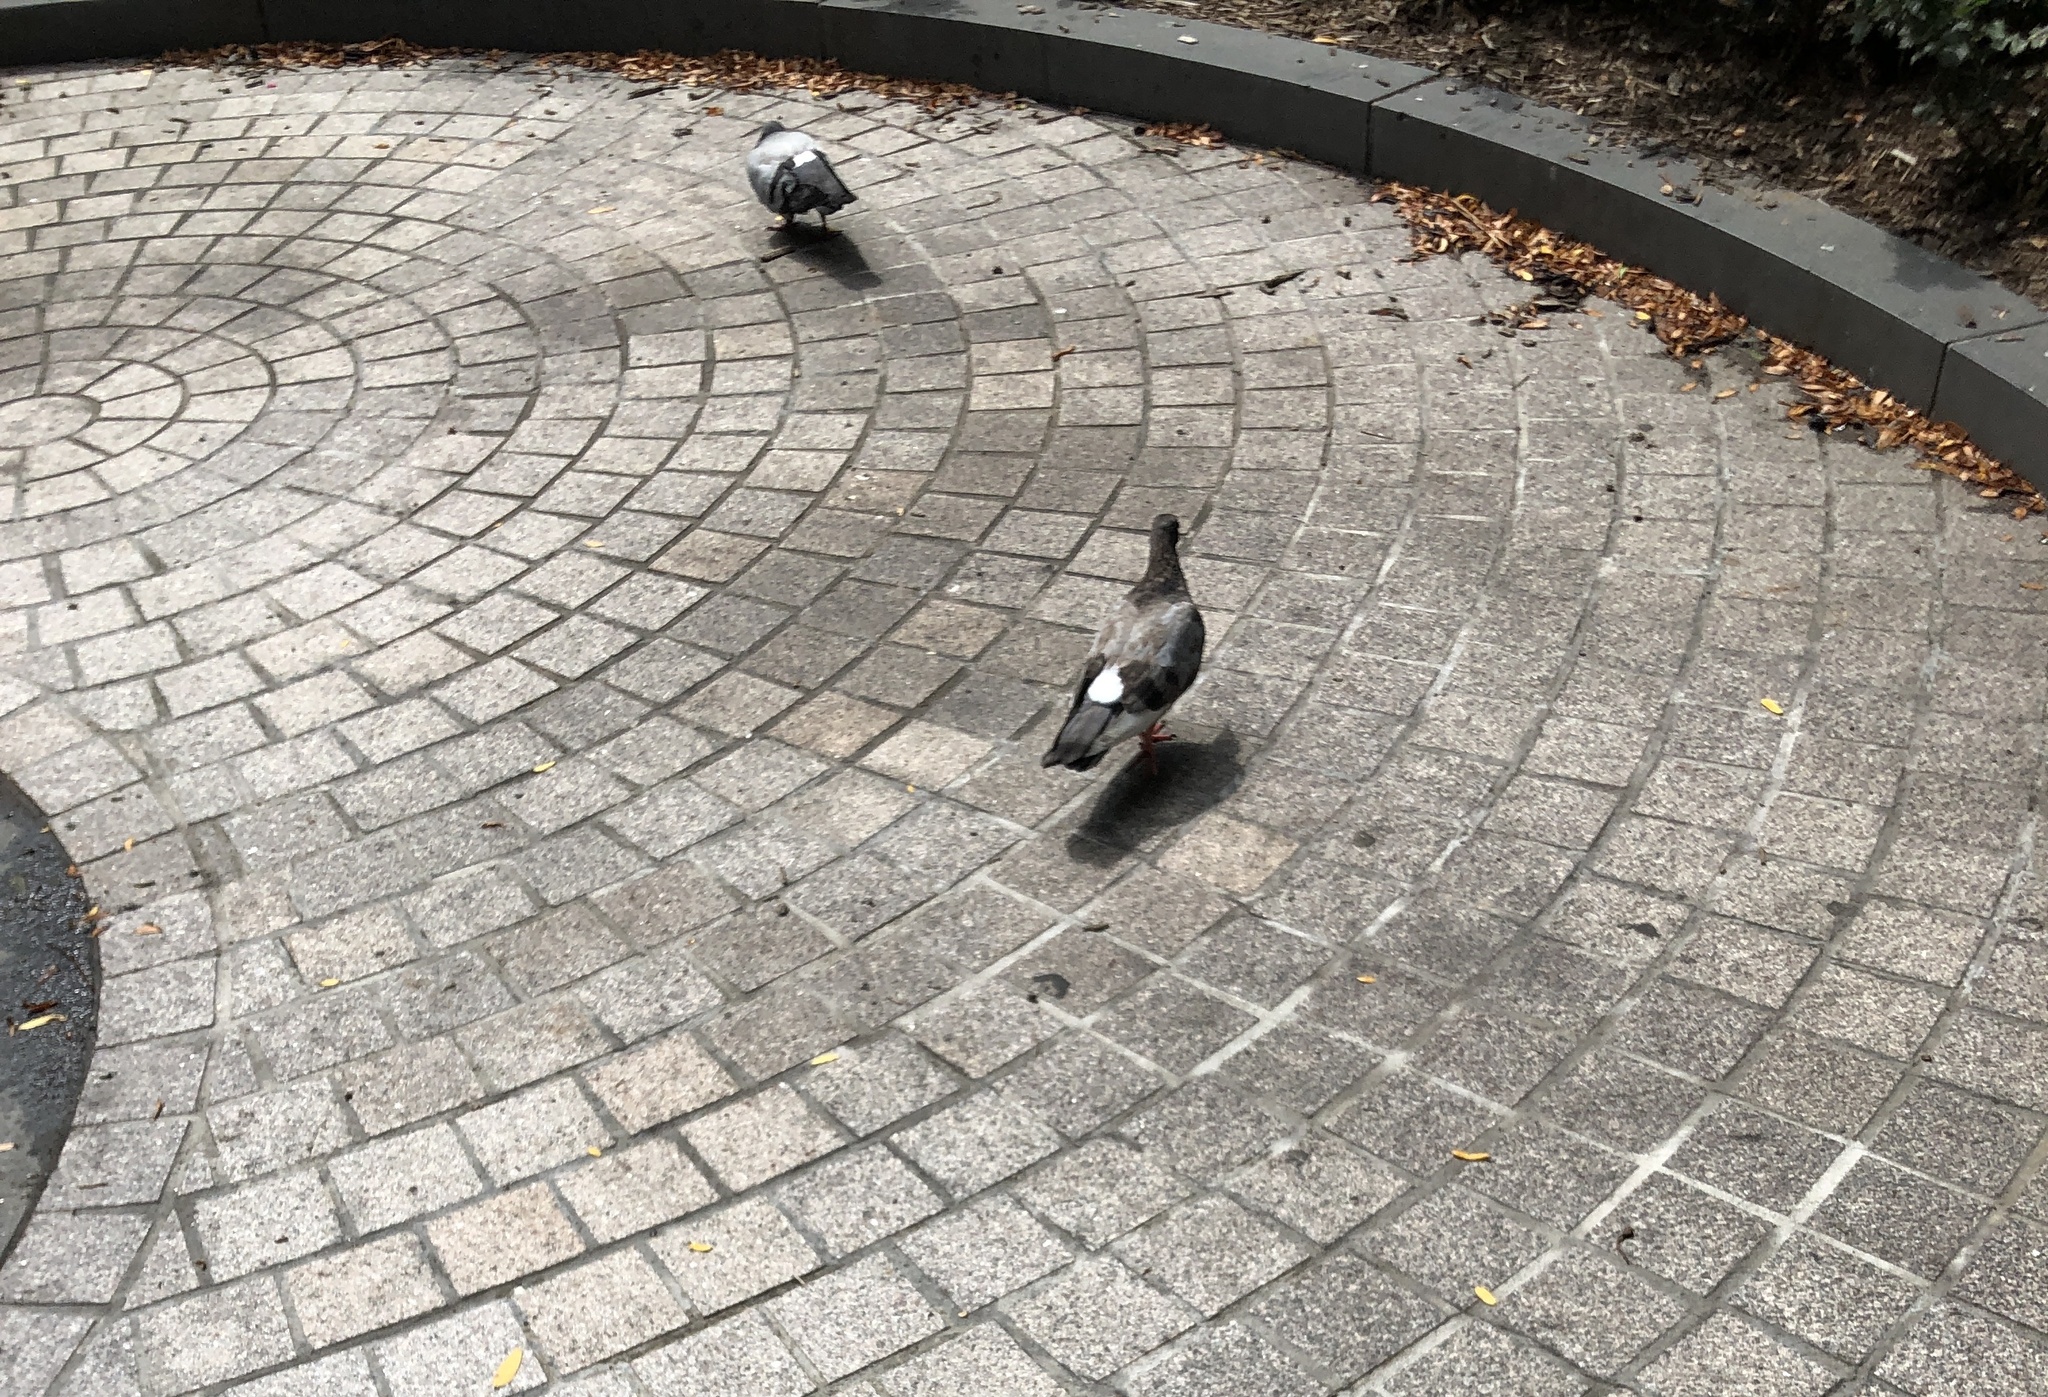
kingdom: Animalia
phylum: Chordata
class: Aves
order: Columbiformes
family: Columbidae
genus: Columba
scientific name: Columba livia
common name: Rock pigeon
